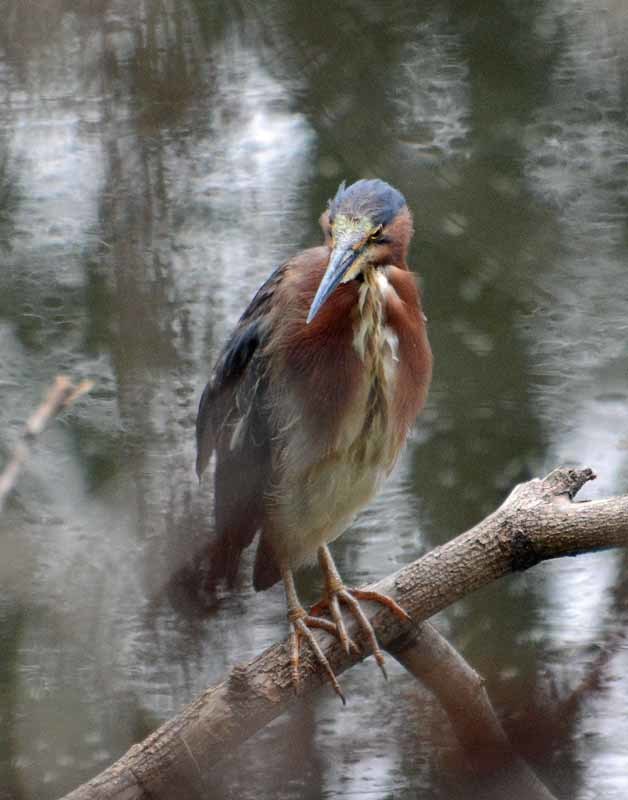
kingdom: Animalia
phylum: Chordata
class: Aves
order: Pelecaniformes
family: Ardeidae
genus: Butorides
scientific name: Butorides virescens
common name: Green heron
